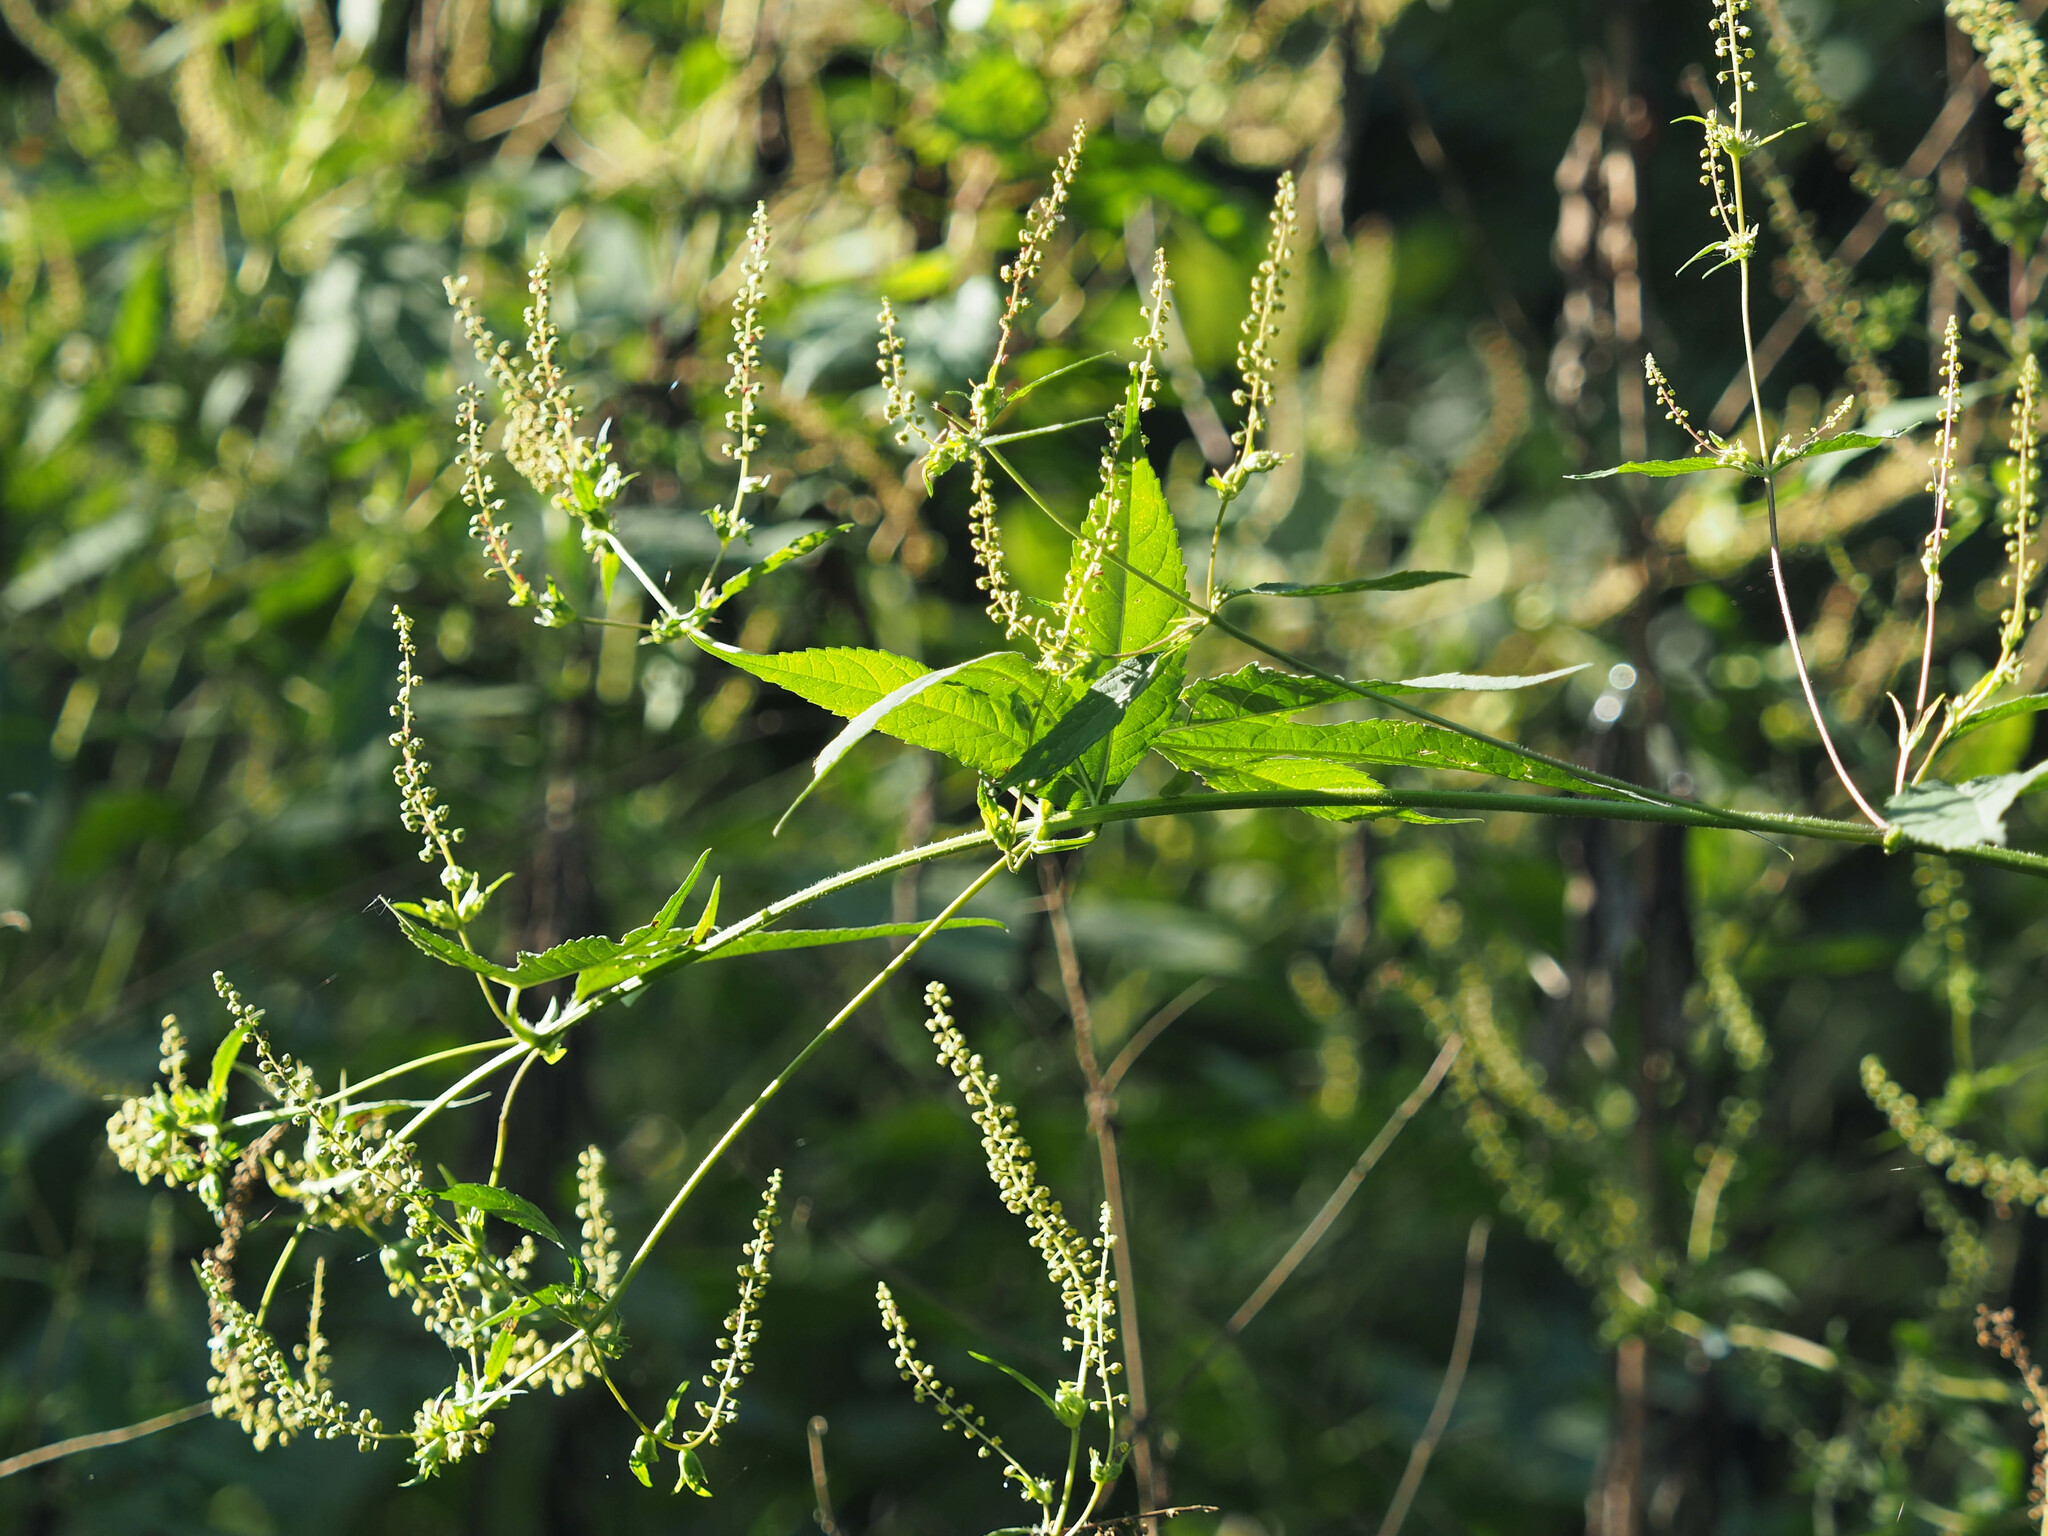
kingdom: Plantae
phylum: Tracheophyta
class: Magnoliopsida
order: Asterales
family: Asteraceae
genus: Ambrosia
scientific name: Ambrosia trifida
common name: Giant ragweed
